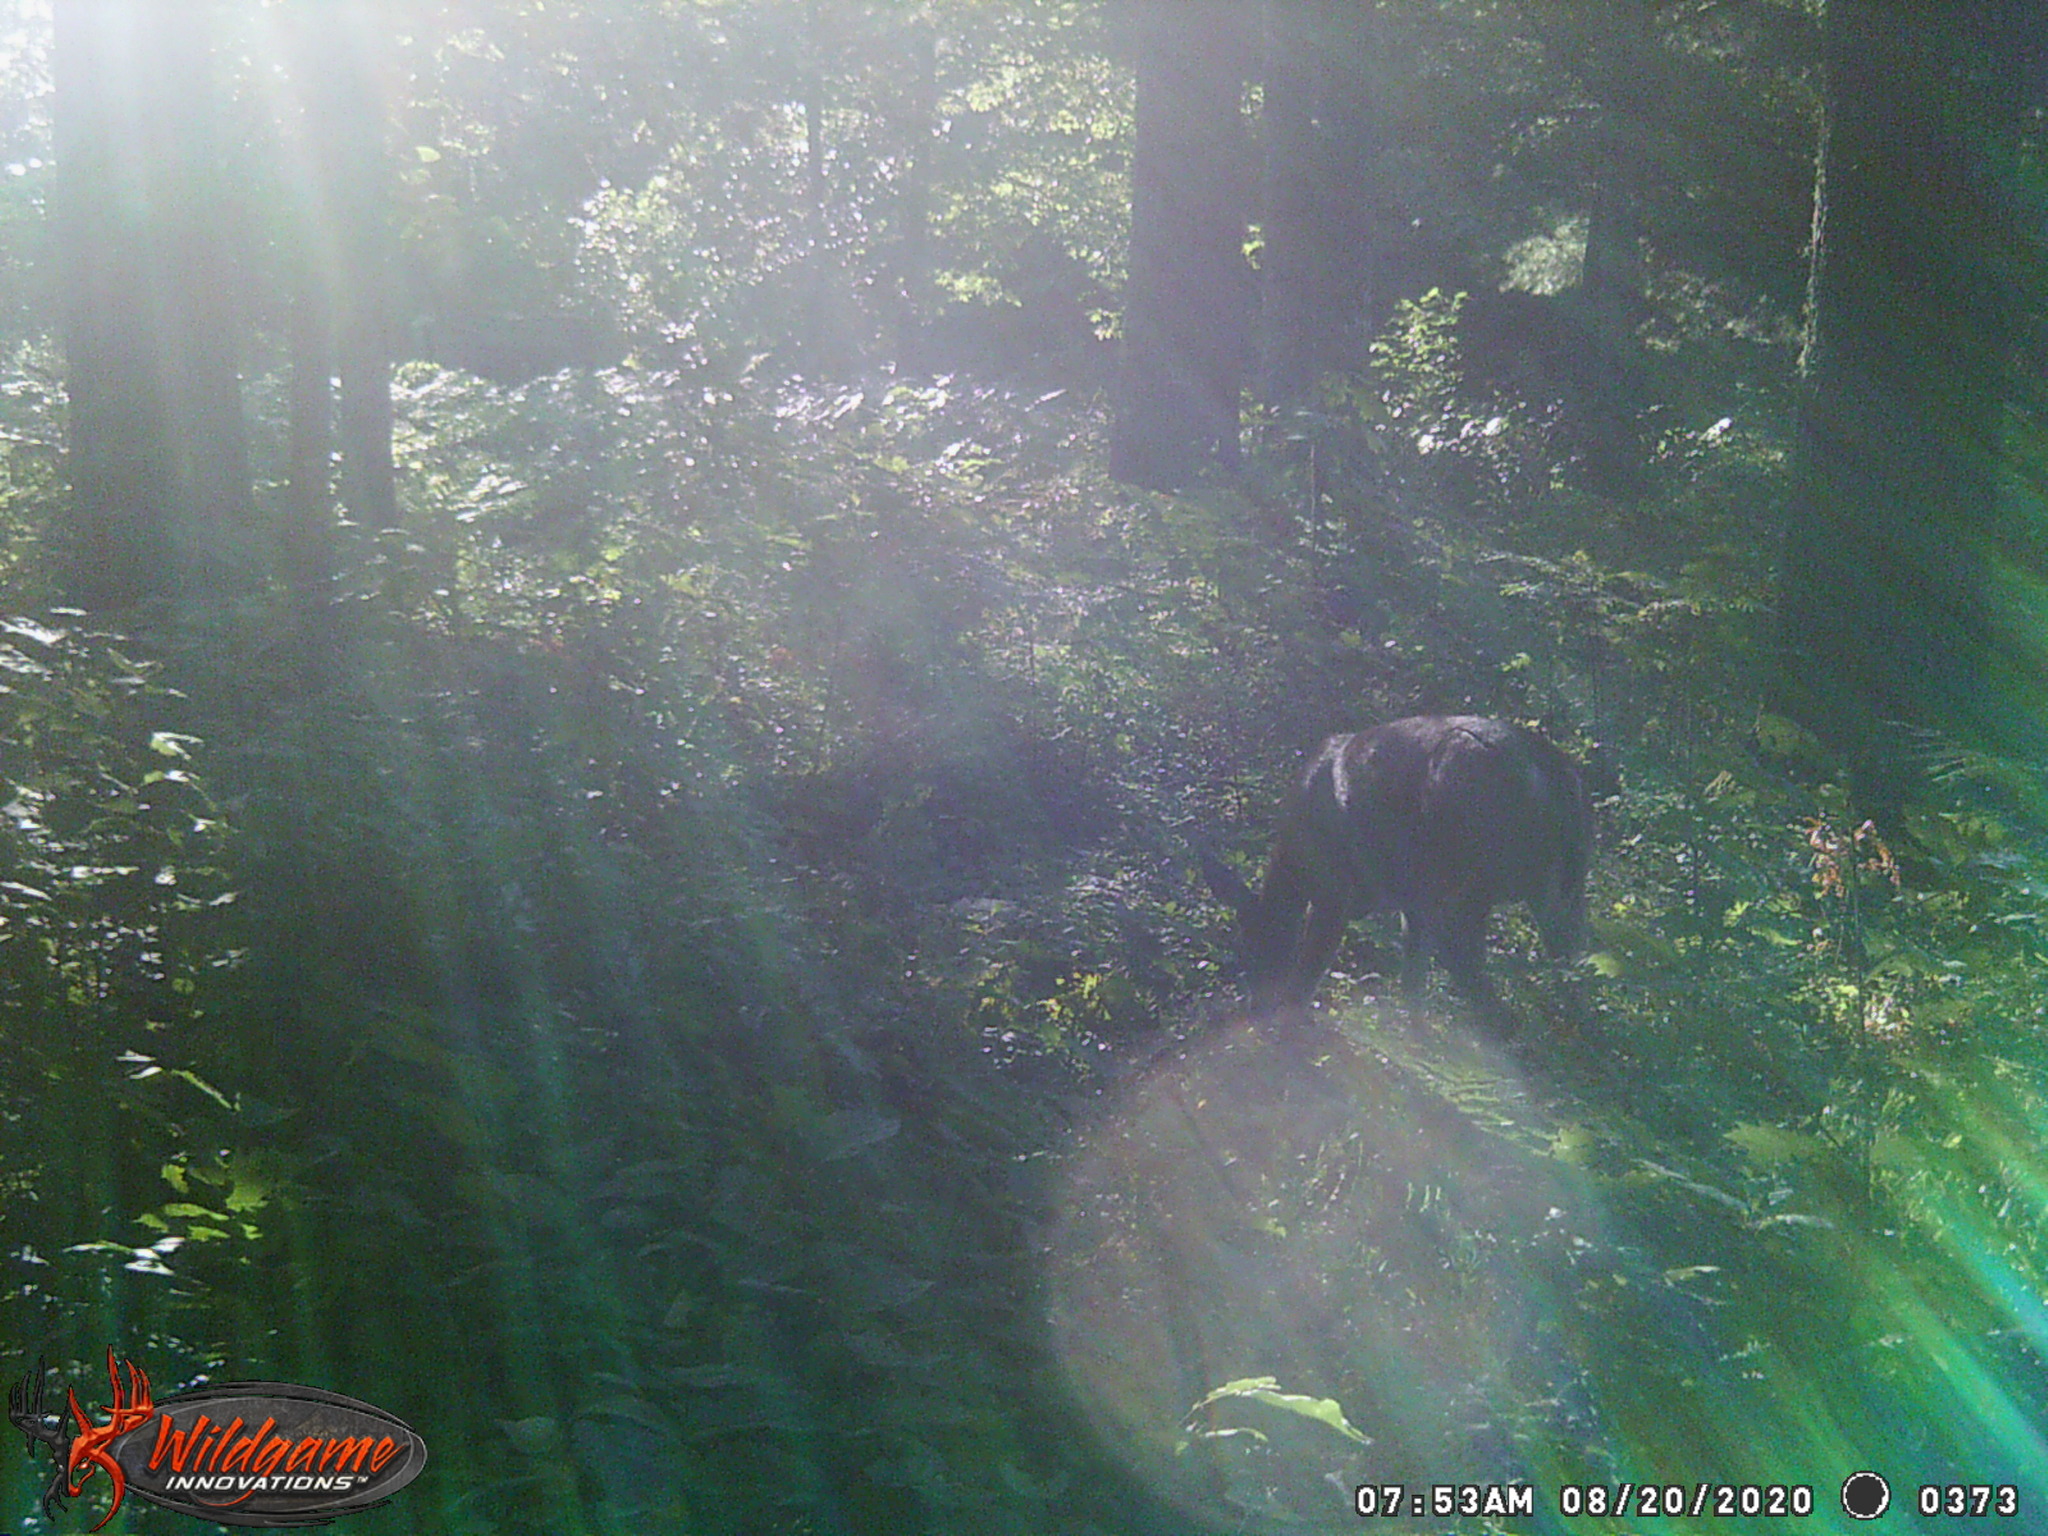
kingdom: Animalia
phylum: Chordata
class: Mammalia
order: Artiodactyla
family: Cervidae
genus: Odocoileus
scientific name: Odocoileus virginianus
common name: White-tailed deer
